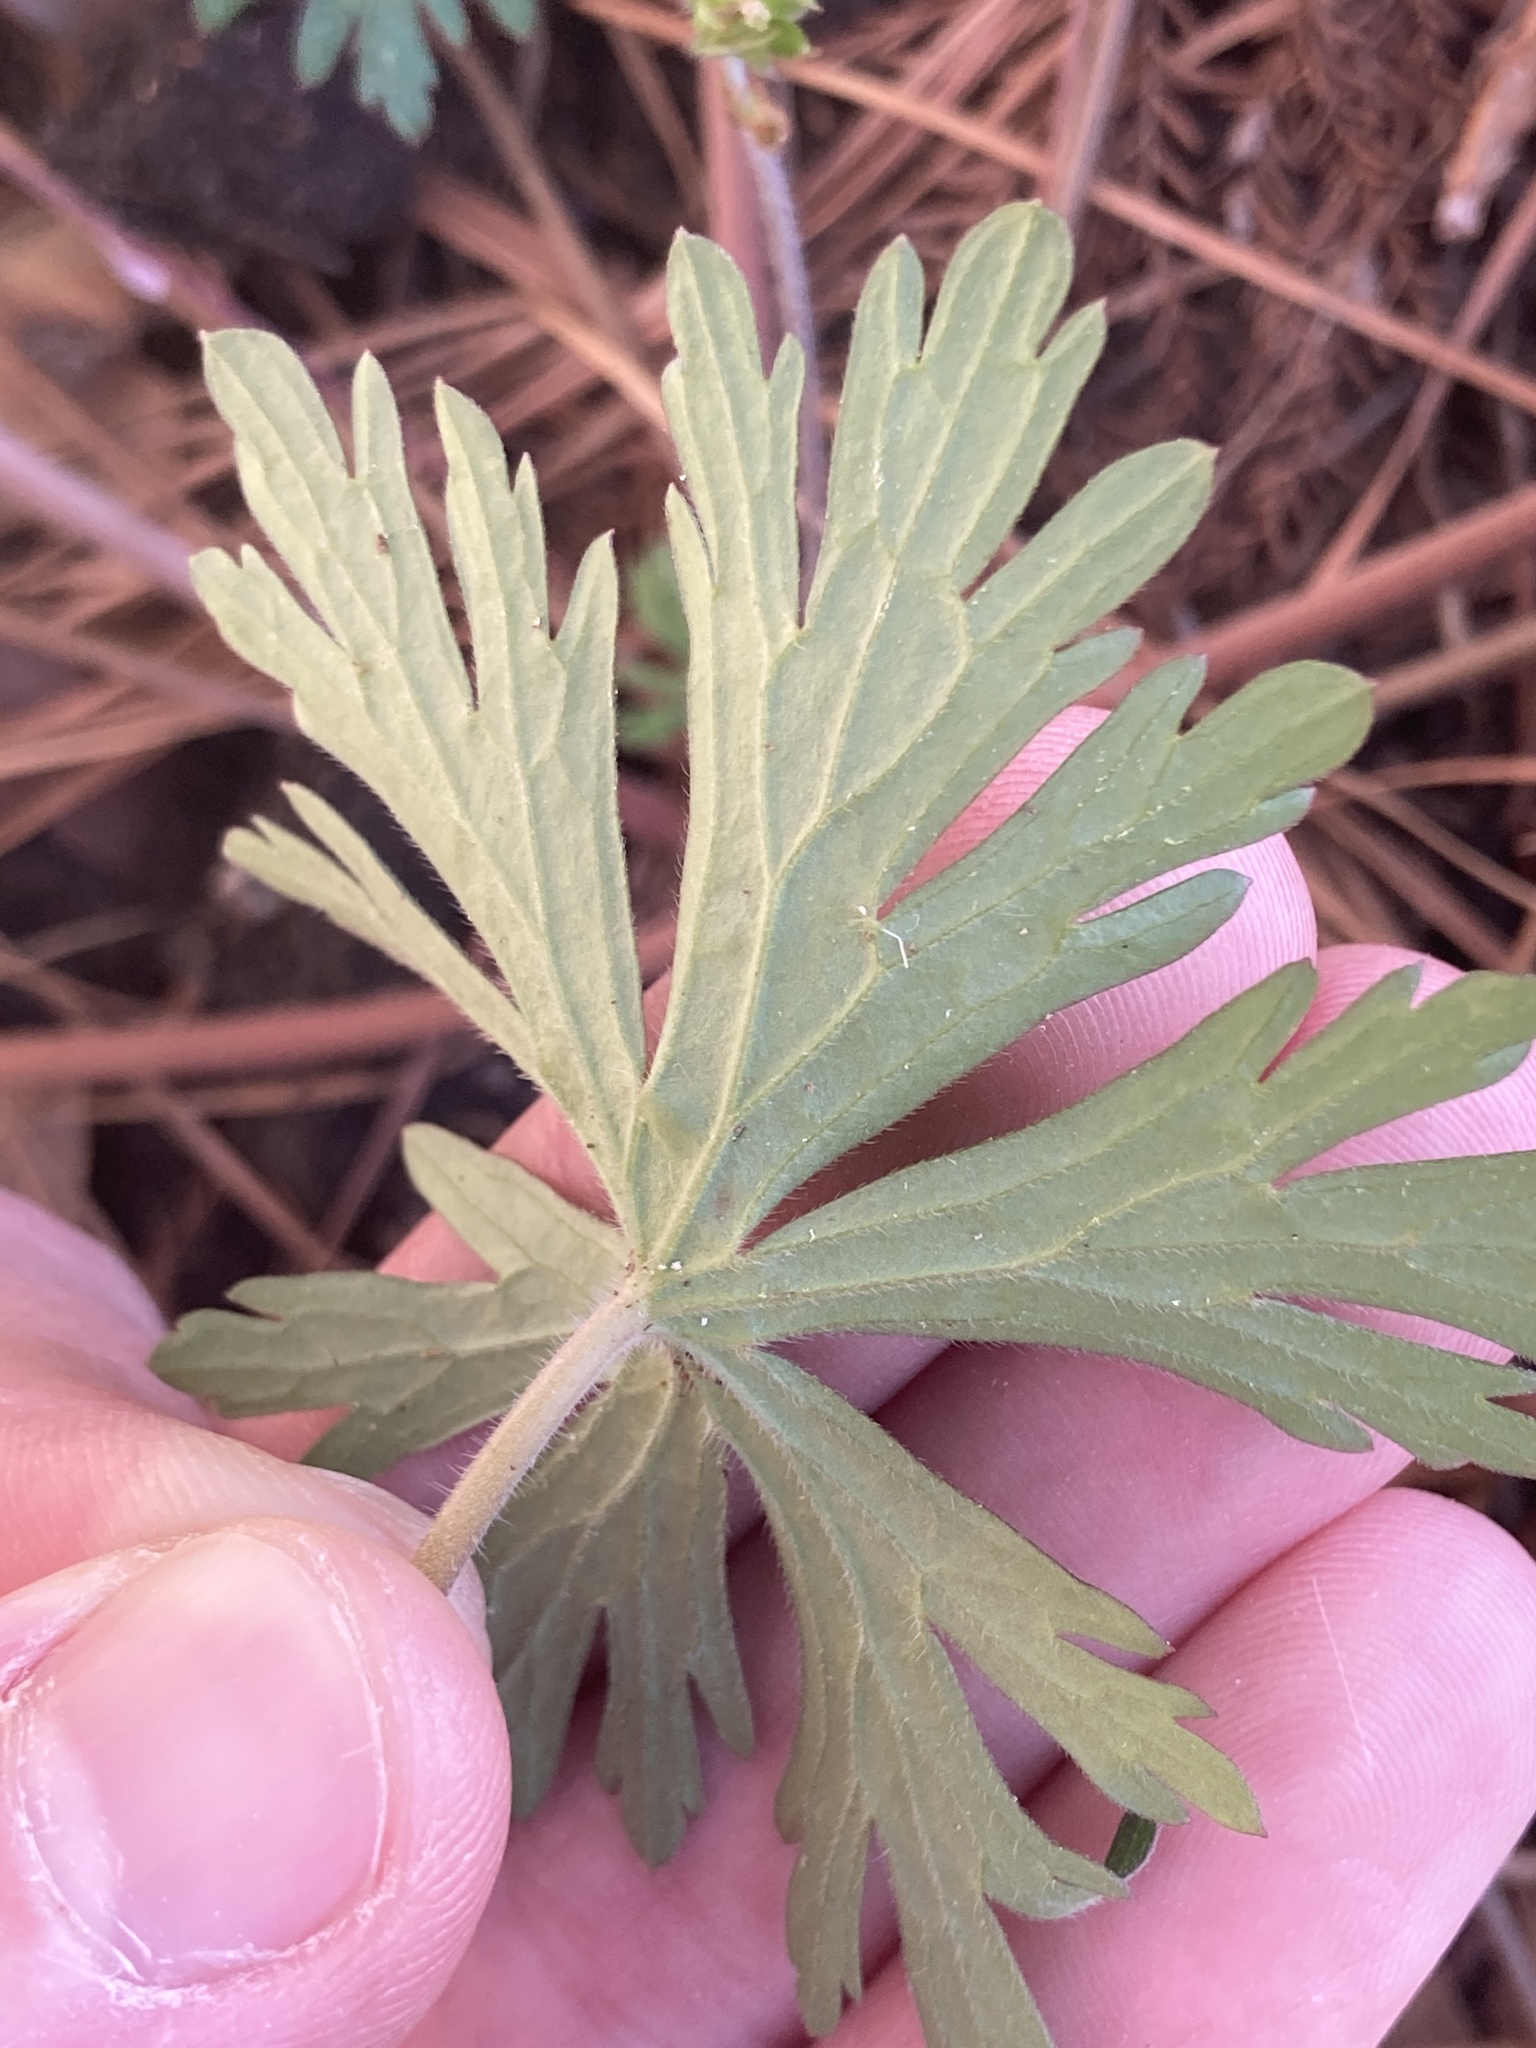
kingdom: Plantae
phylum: Tracheophyta
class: Magnoliopsida
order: Geraniales
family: Geraniaceae
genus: Geranium
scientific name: Geranium carolinianum
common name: Carolina crane's-bill
